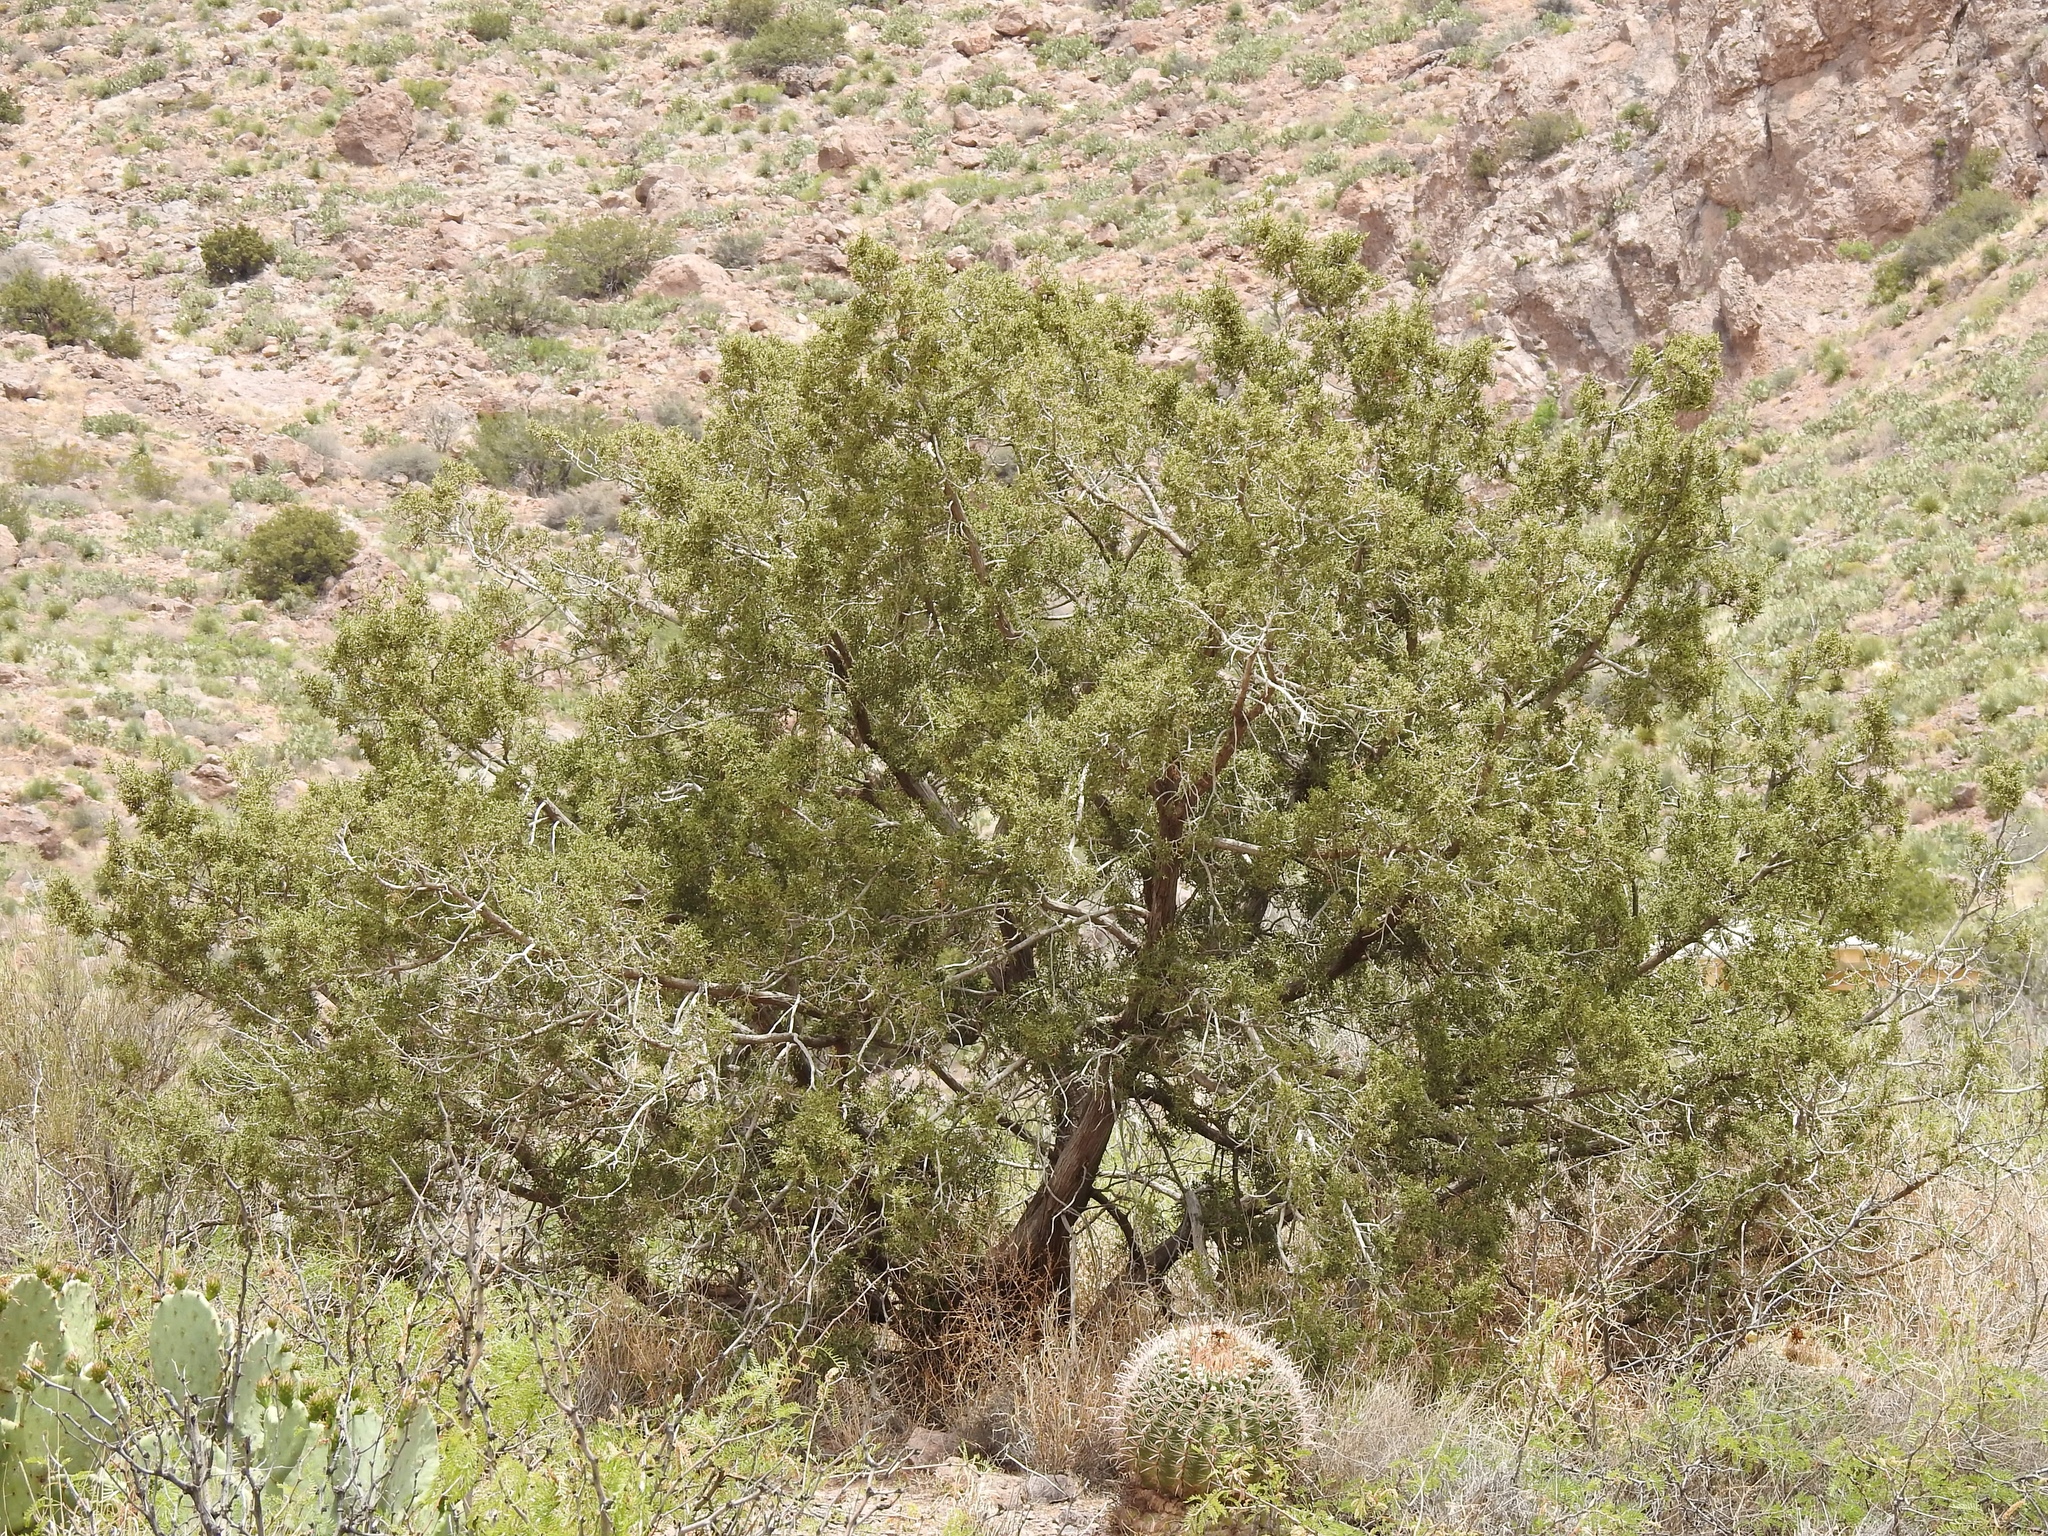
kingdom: Plantae
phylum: Tracheophyta
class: Pinopsida
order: Pinales
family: Cupressaceae
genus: Juniperus
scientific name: Juniperus monosperma
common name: One-seed juniper
